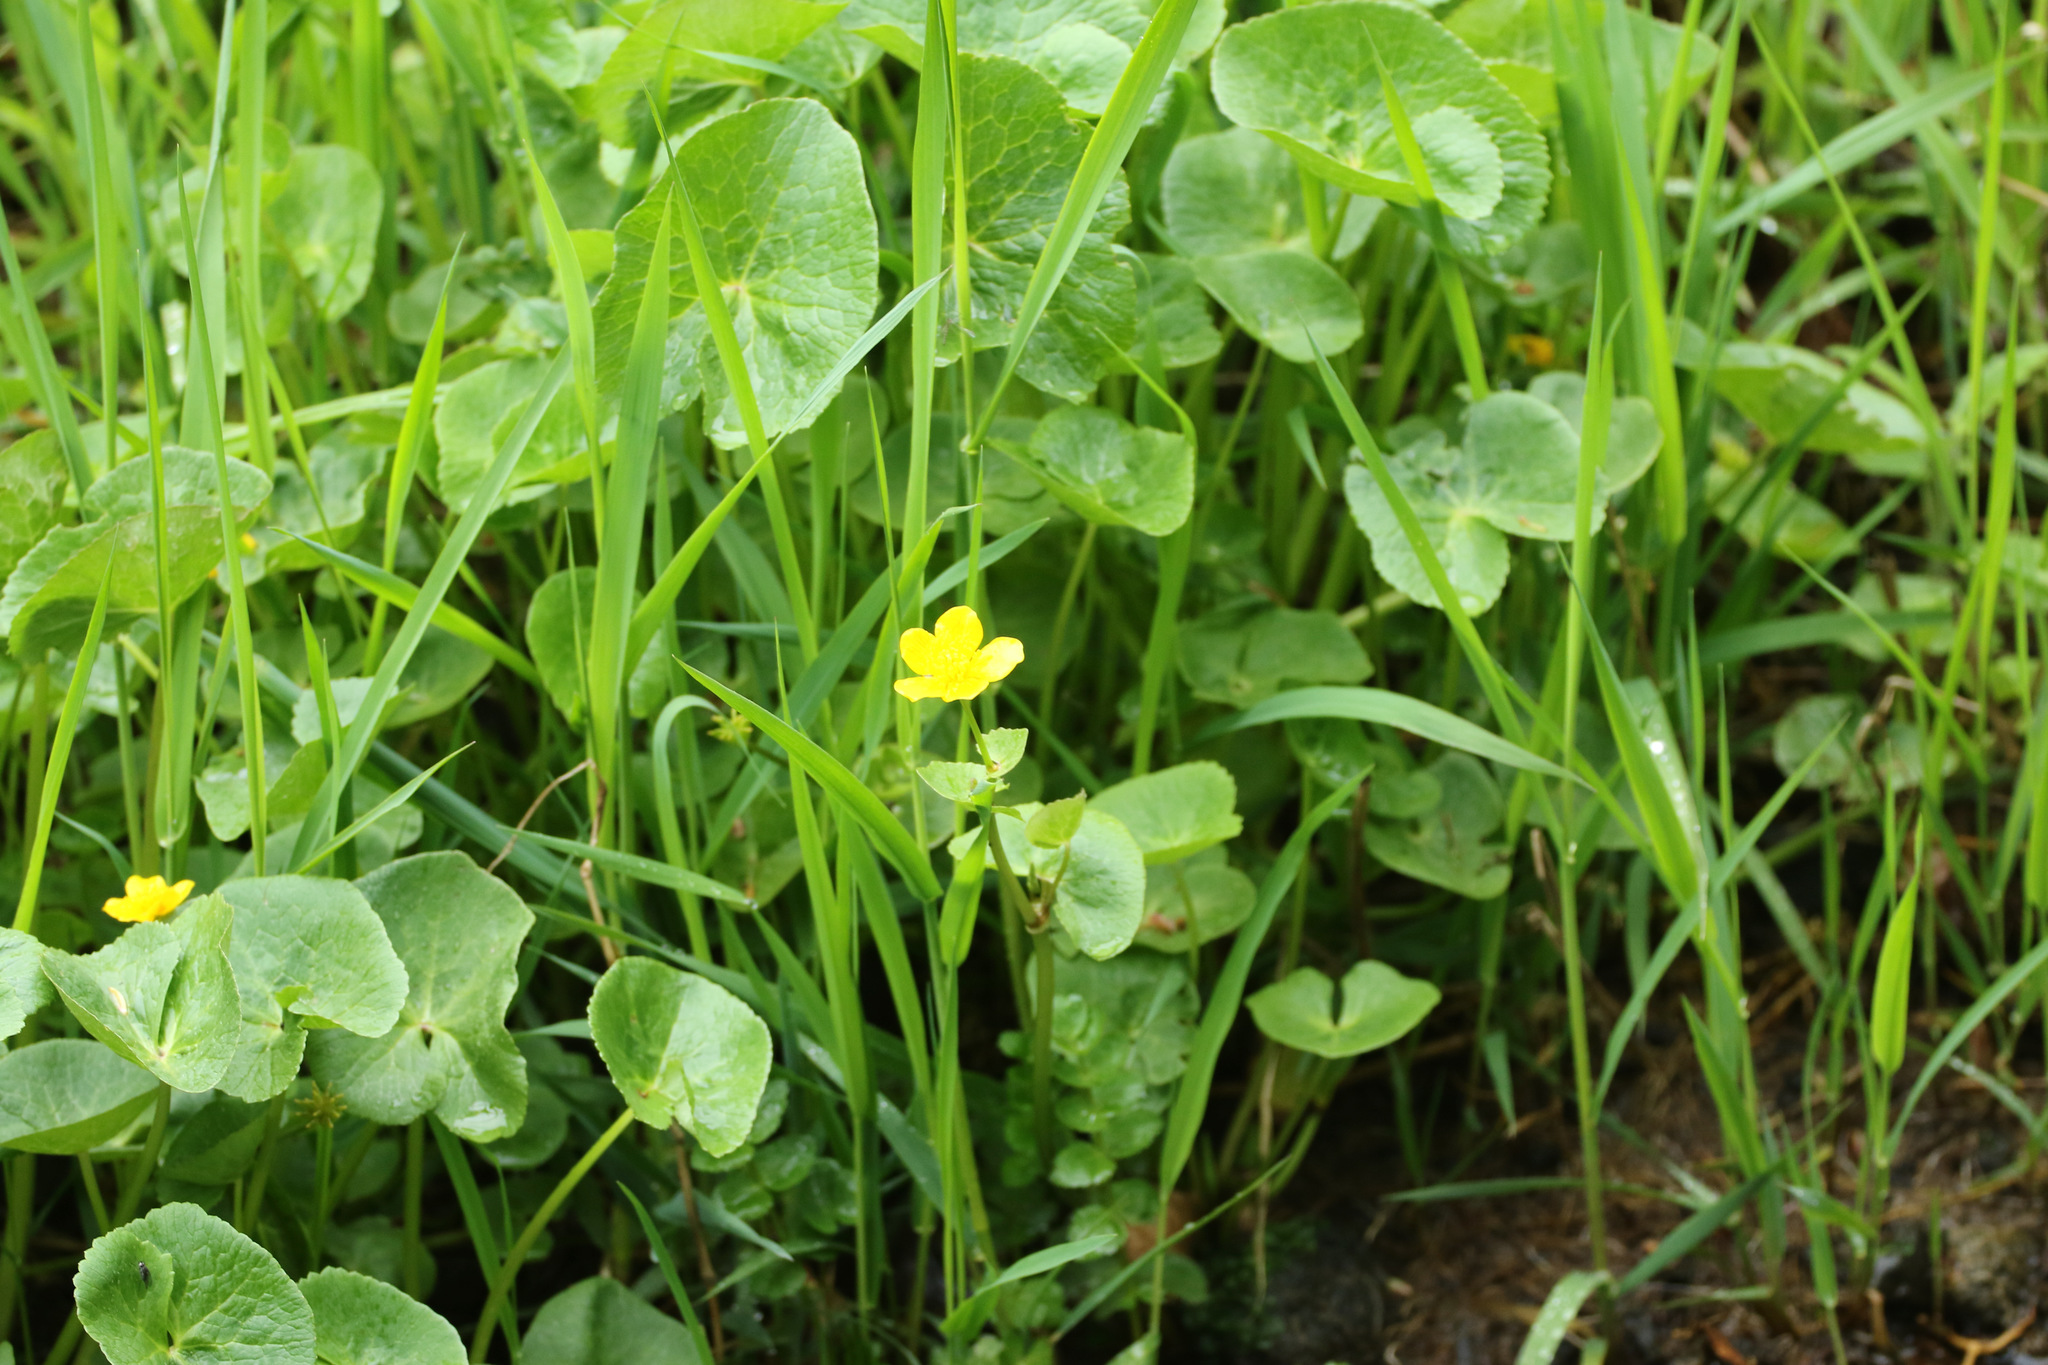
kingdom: Plantae
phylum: Tracheophyta
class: Magnoliopsida
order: Ranunculales
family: Ranunculaceae
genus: Caltha
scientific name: Caltha palustris
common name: Marsh marigold
